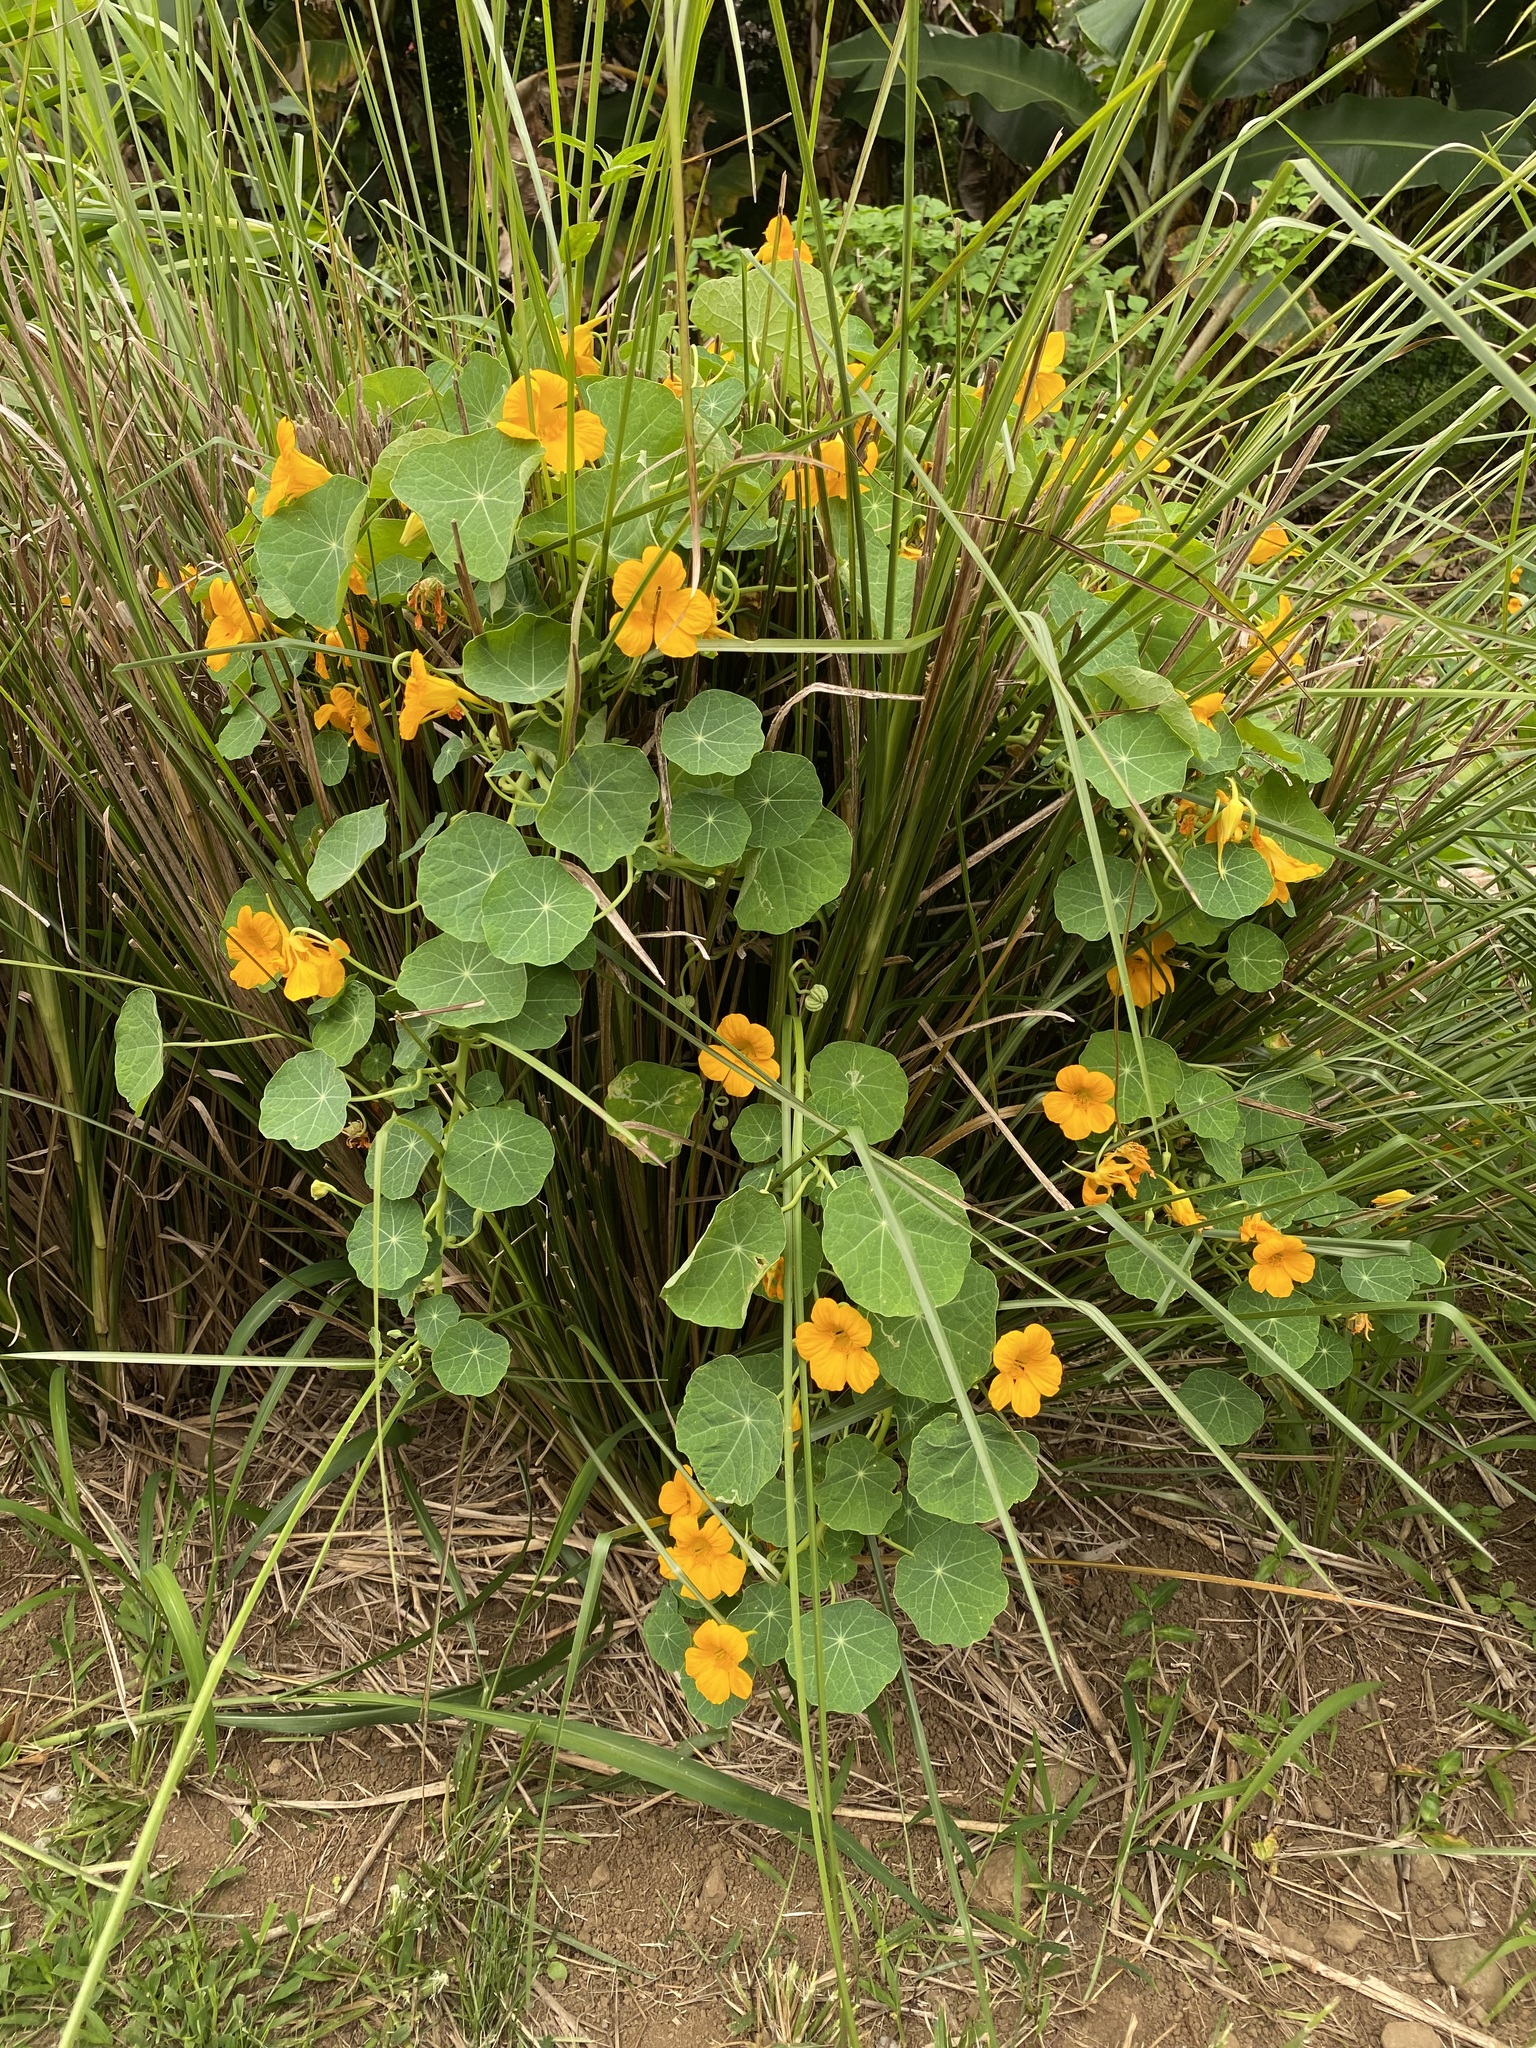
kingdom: Plantae
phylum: Tracheophyta
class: Magnoliopsida
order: Brassicales
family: Tropaeolaceae
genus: Tropaeolum
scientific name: Tropaeolum majus
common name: Nasturtium
